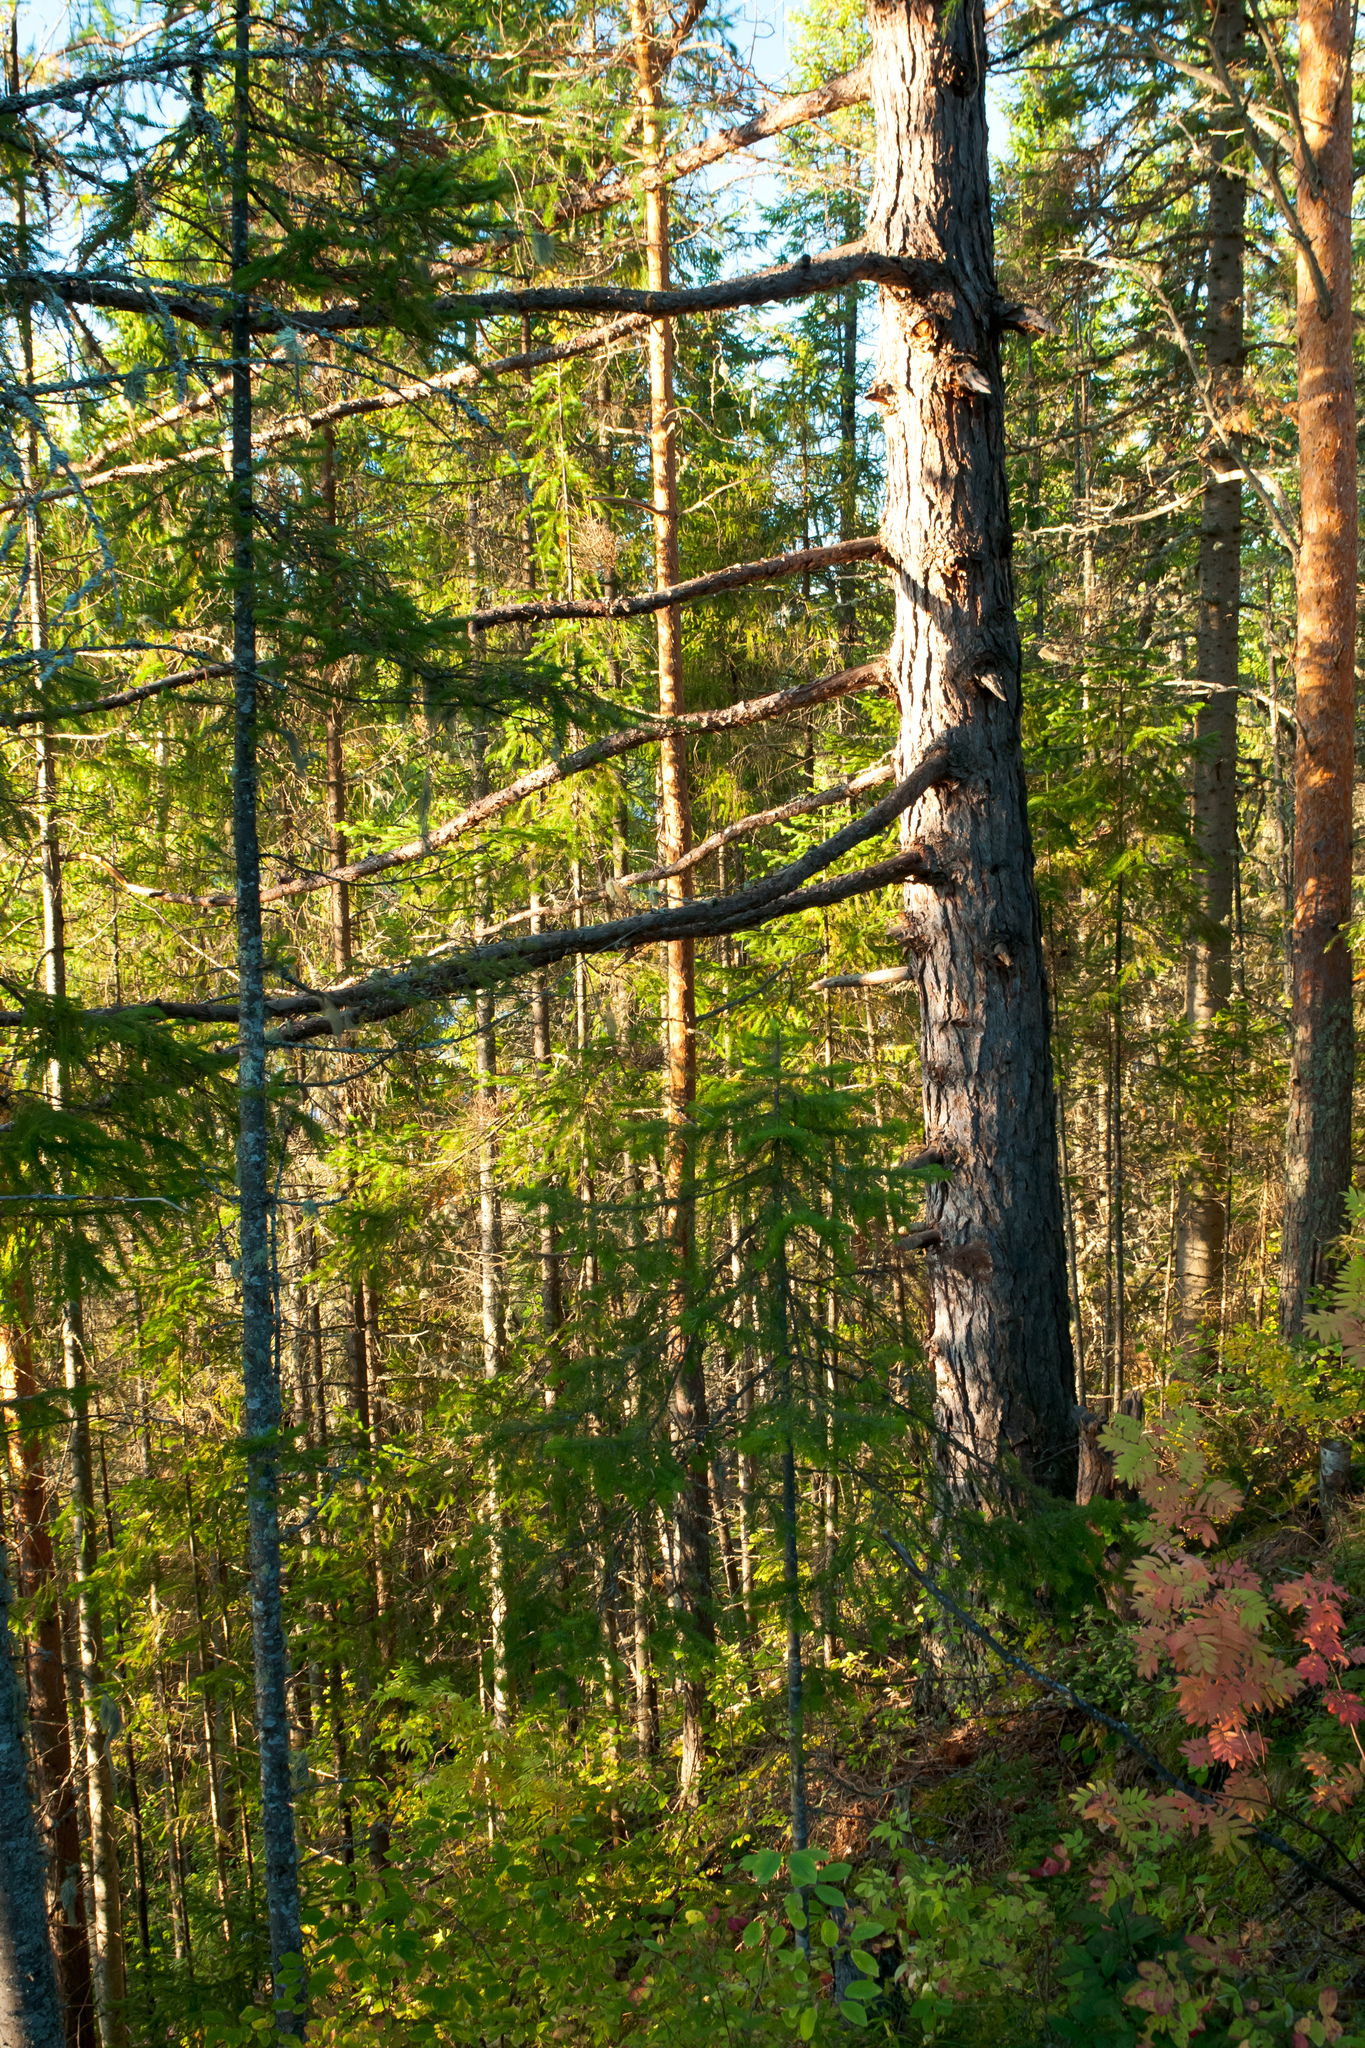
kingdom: Plantae
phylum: Tracheophyta
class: Pinopsida
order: Pinales
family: Pinaceae
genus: Larix
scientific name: Larix sibirica
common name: Siberian larch
